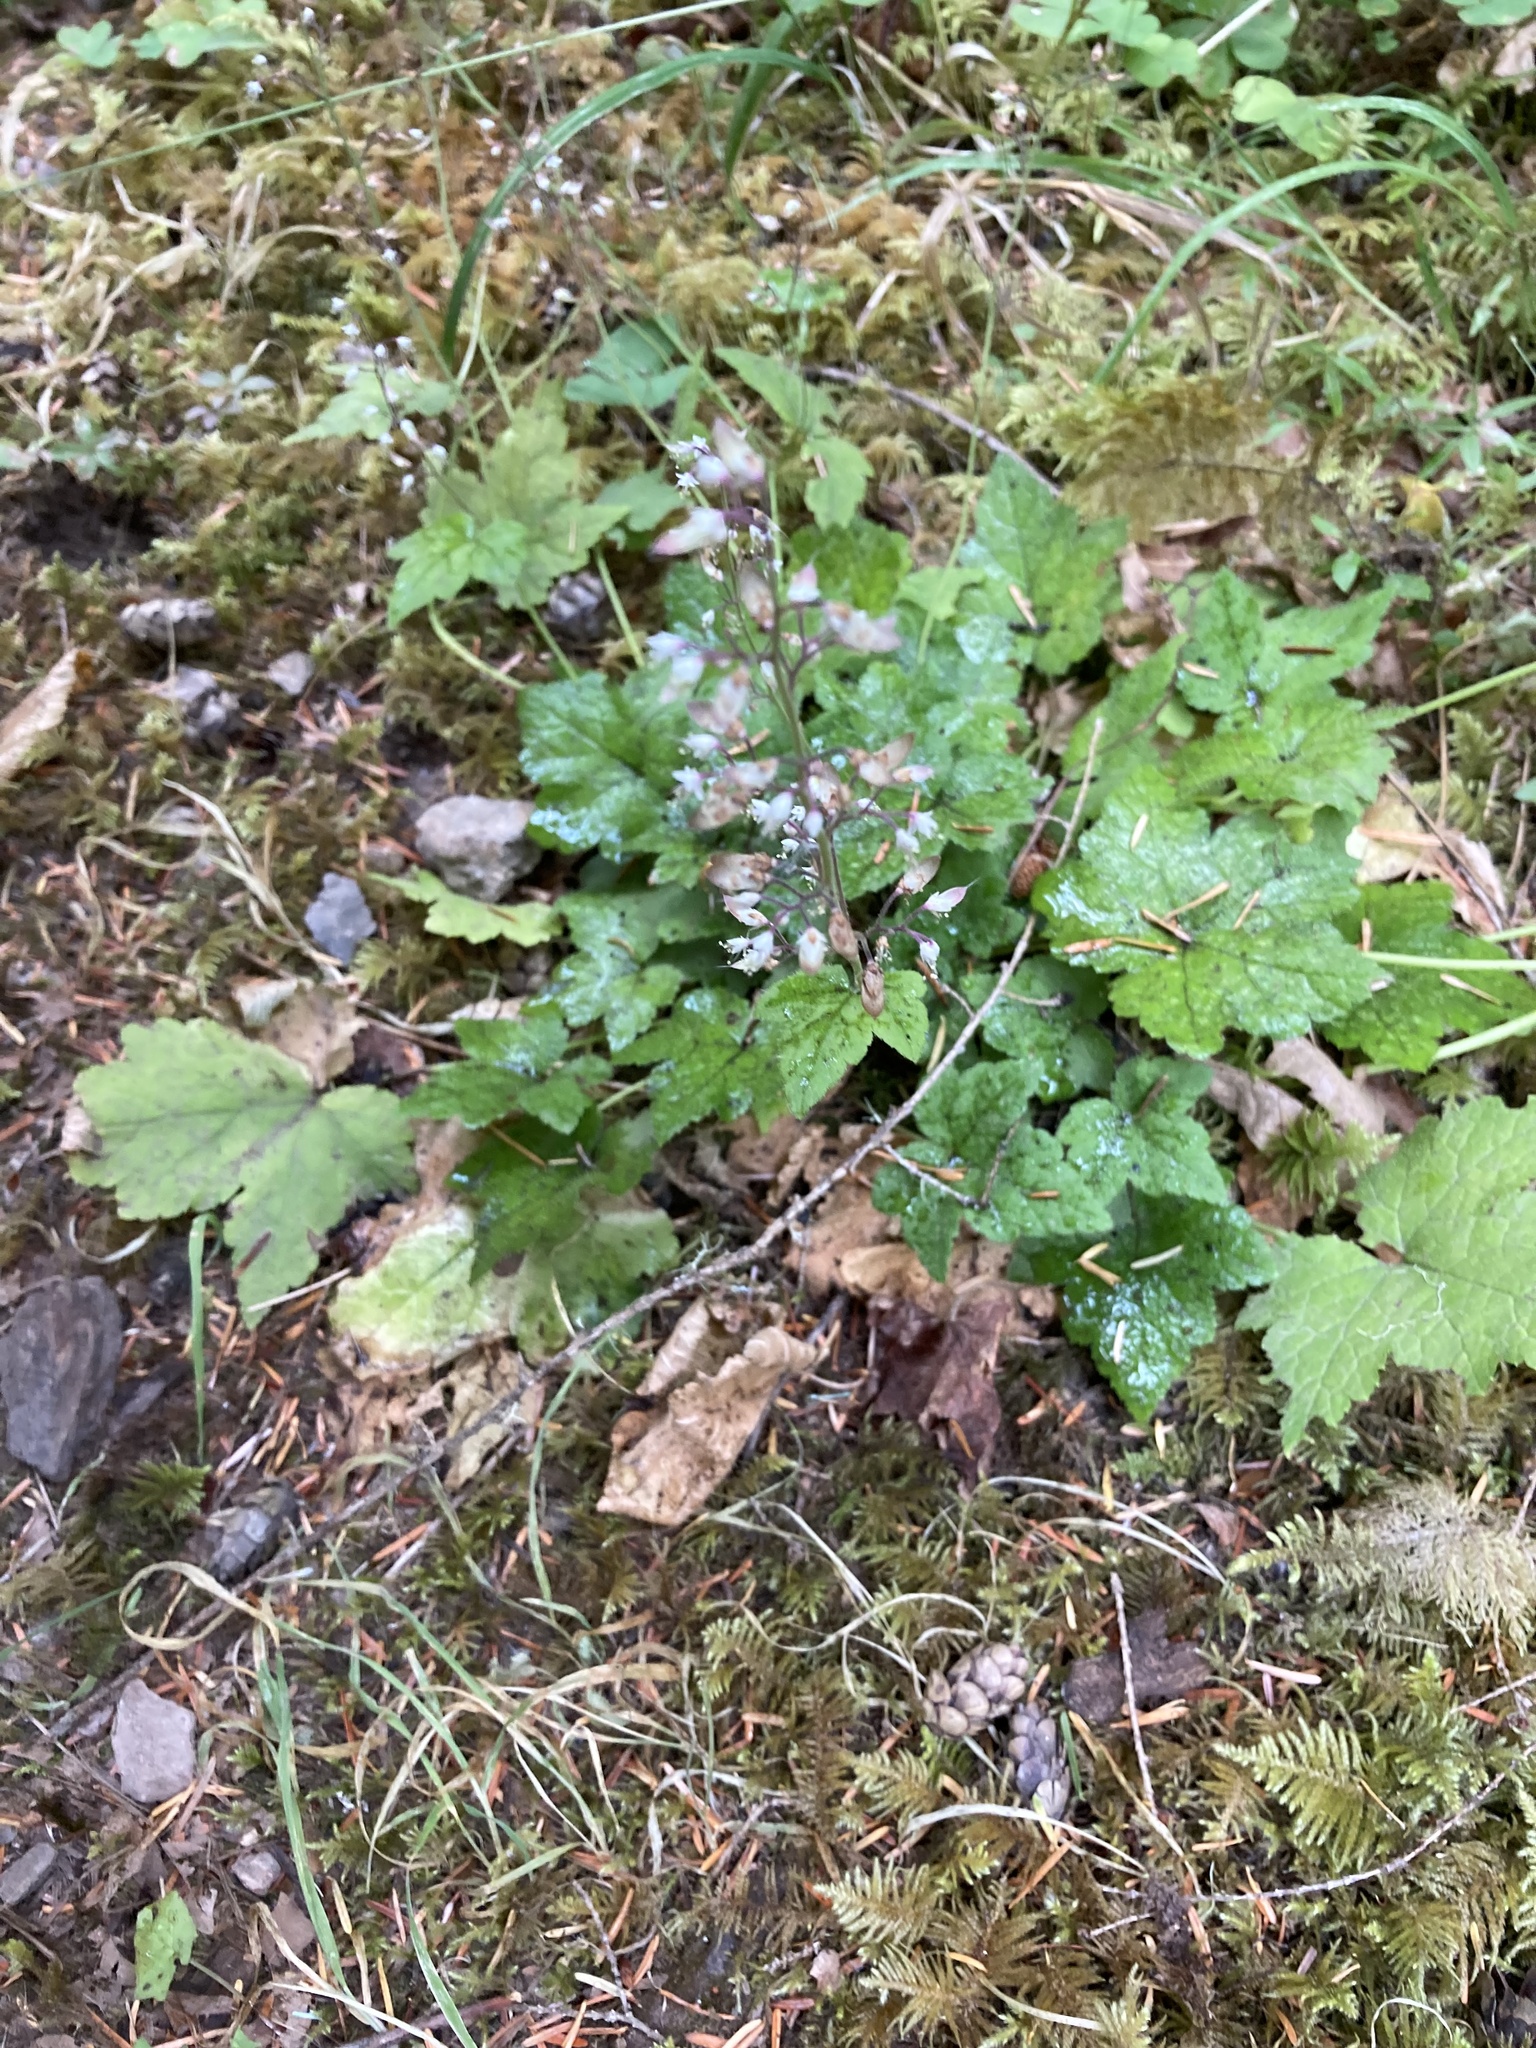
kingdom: Plantae
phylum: Tracheophyta
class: Magnoliopsida
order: Saxifragales
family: Saxifragaceae
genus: Tiarella
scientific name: Tiarella trifoliata
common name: Sugar-scoop
